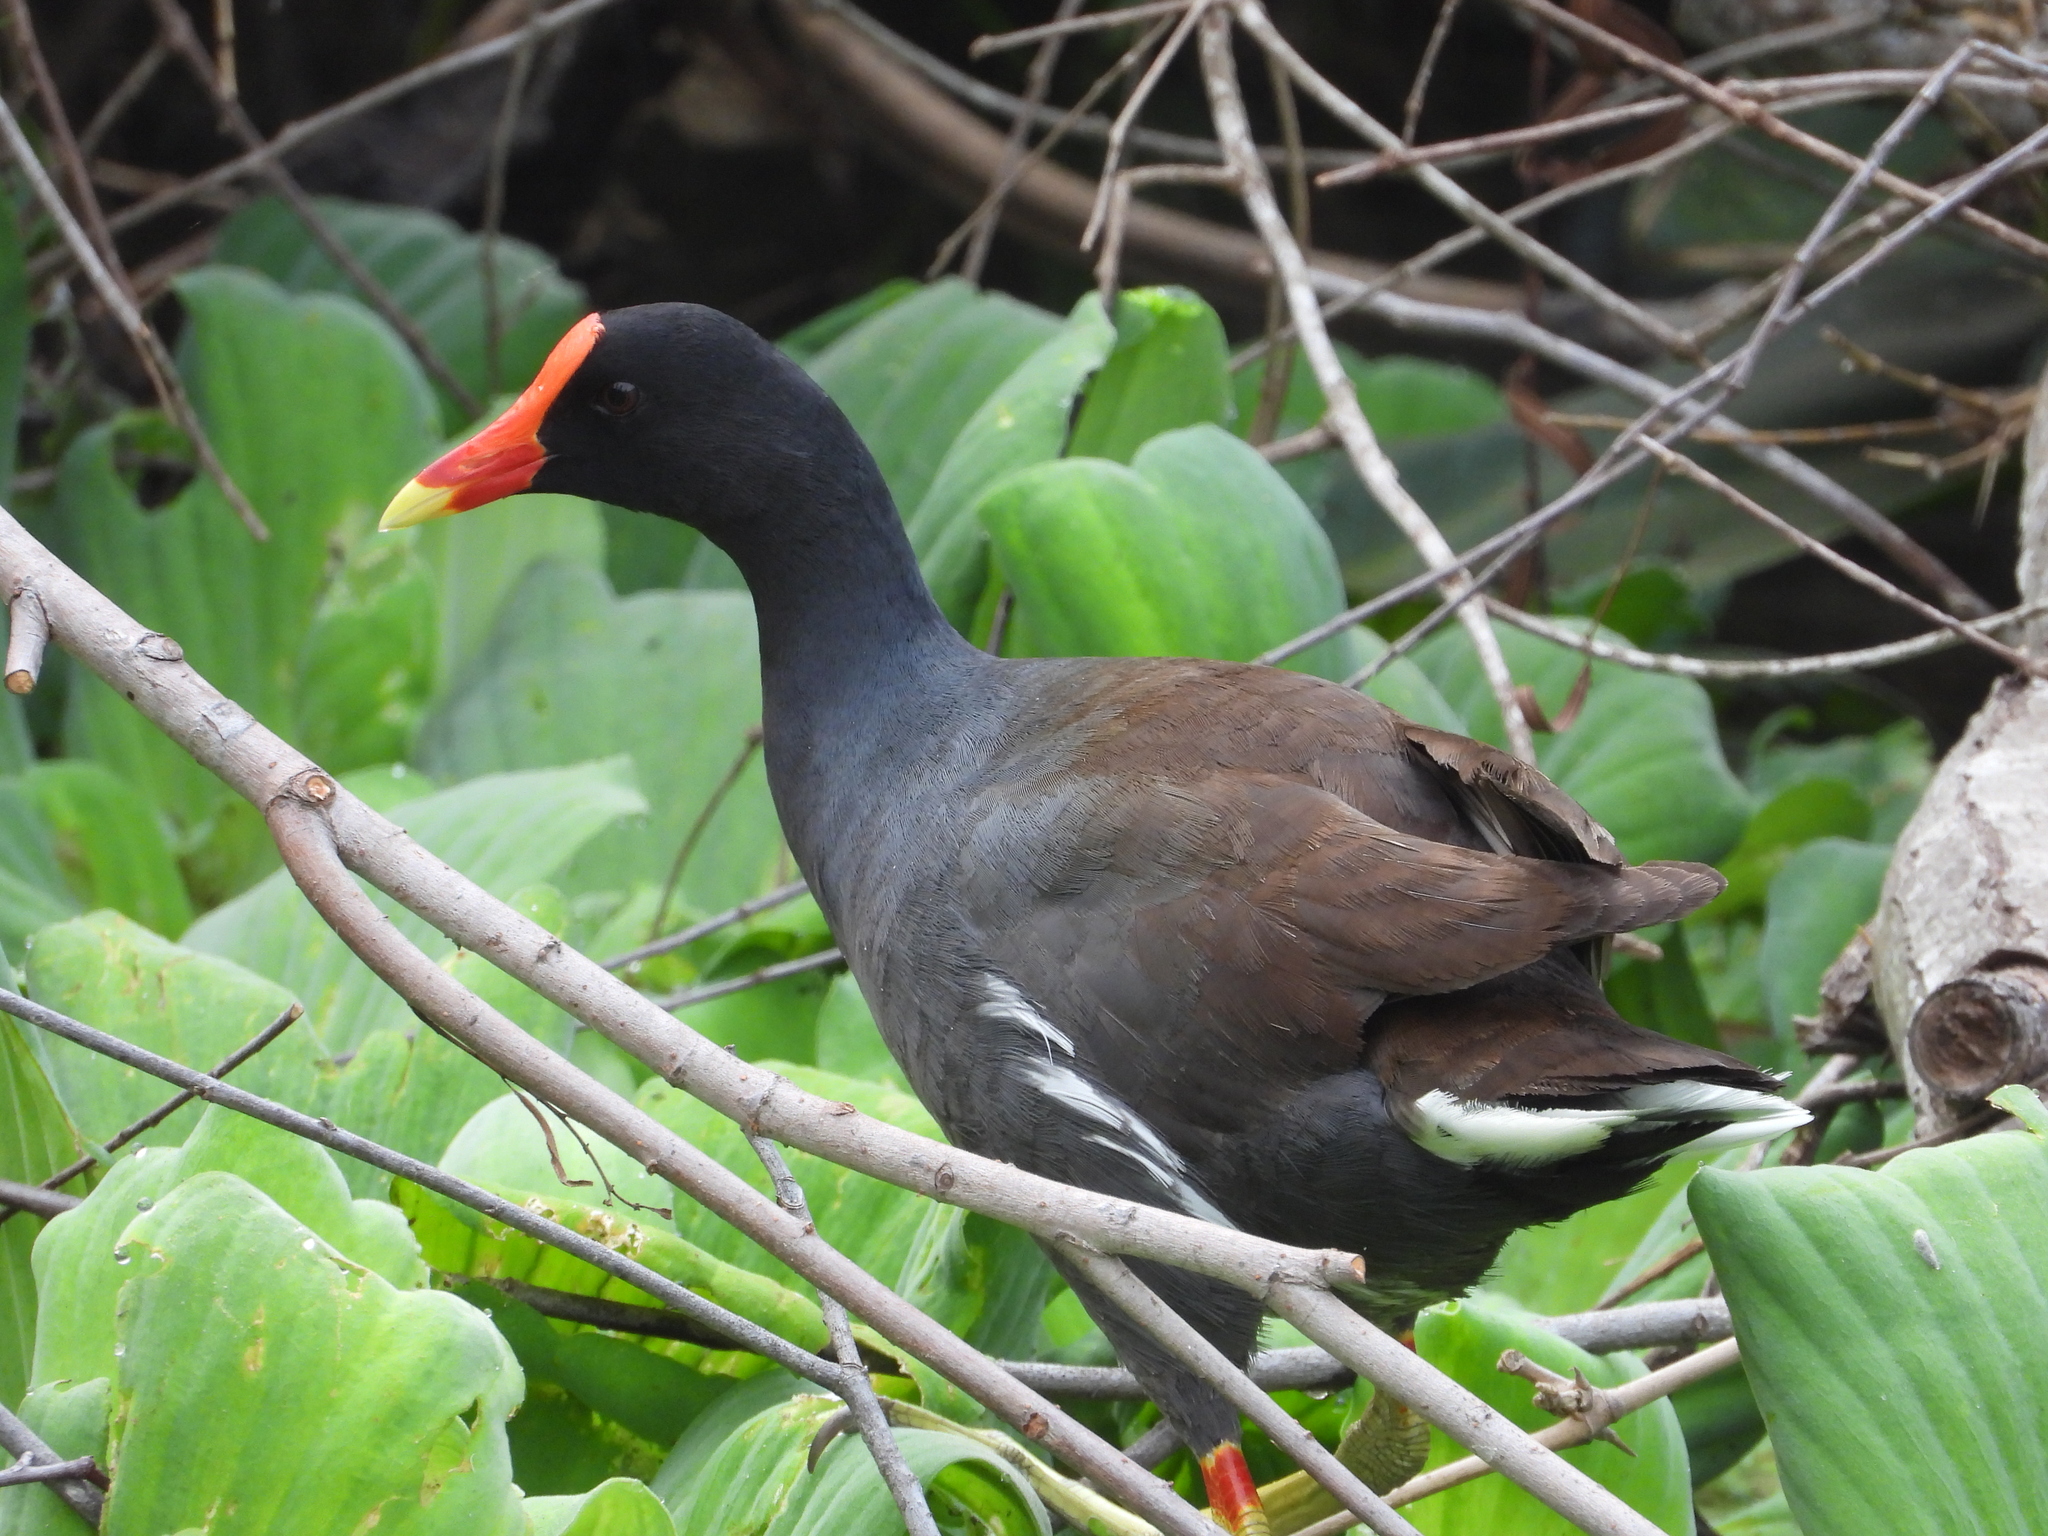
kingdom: Animalia
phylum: Chordata
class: Aves
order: Gruiformes
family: Rallidae
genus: Gallinula
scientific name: Gallinula chloropus
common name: Common moorhen
